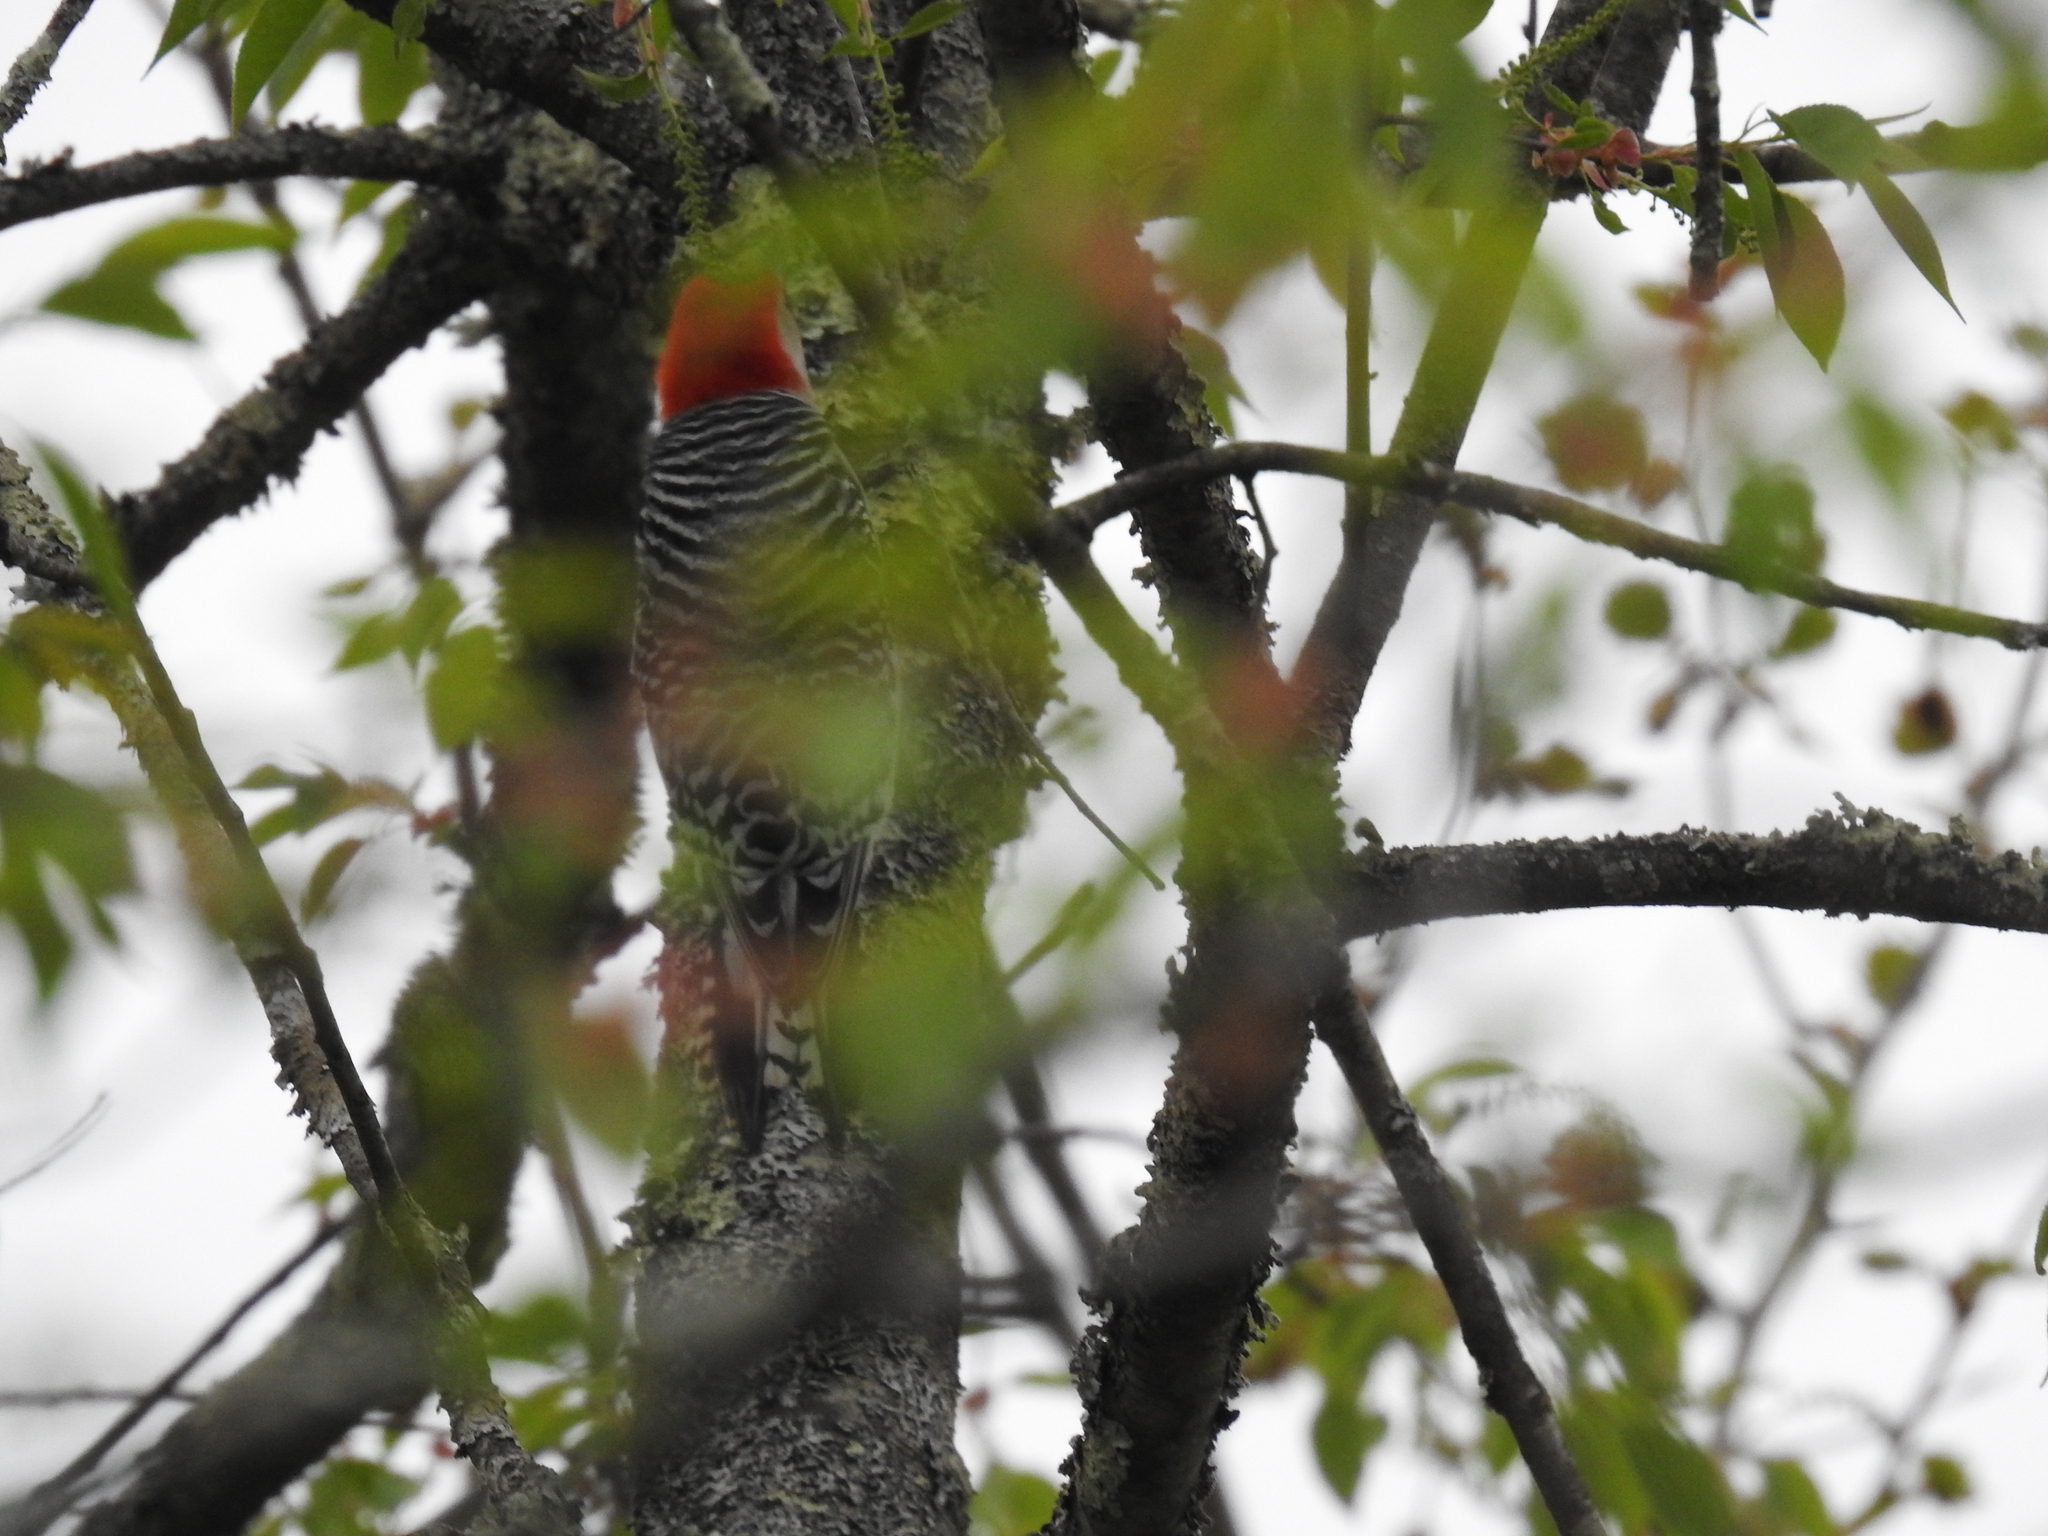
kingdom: Animalia
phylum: Chordata
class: Aves
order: Piciformes
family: Picidae
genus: Melanerpes
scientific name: Melanerpes carolinus
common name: Red-bellied woodpecker
